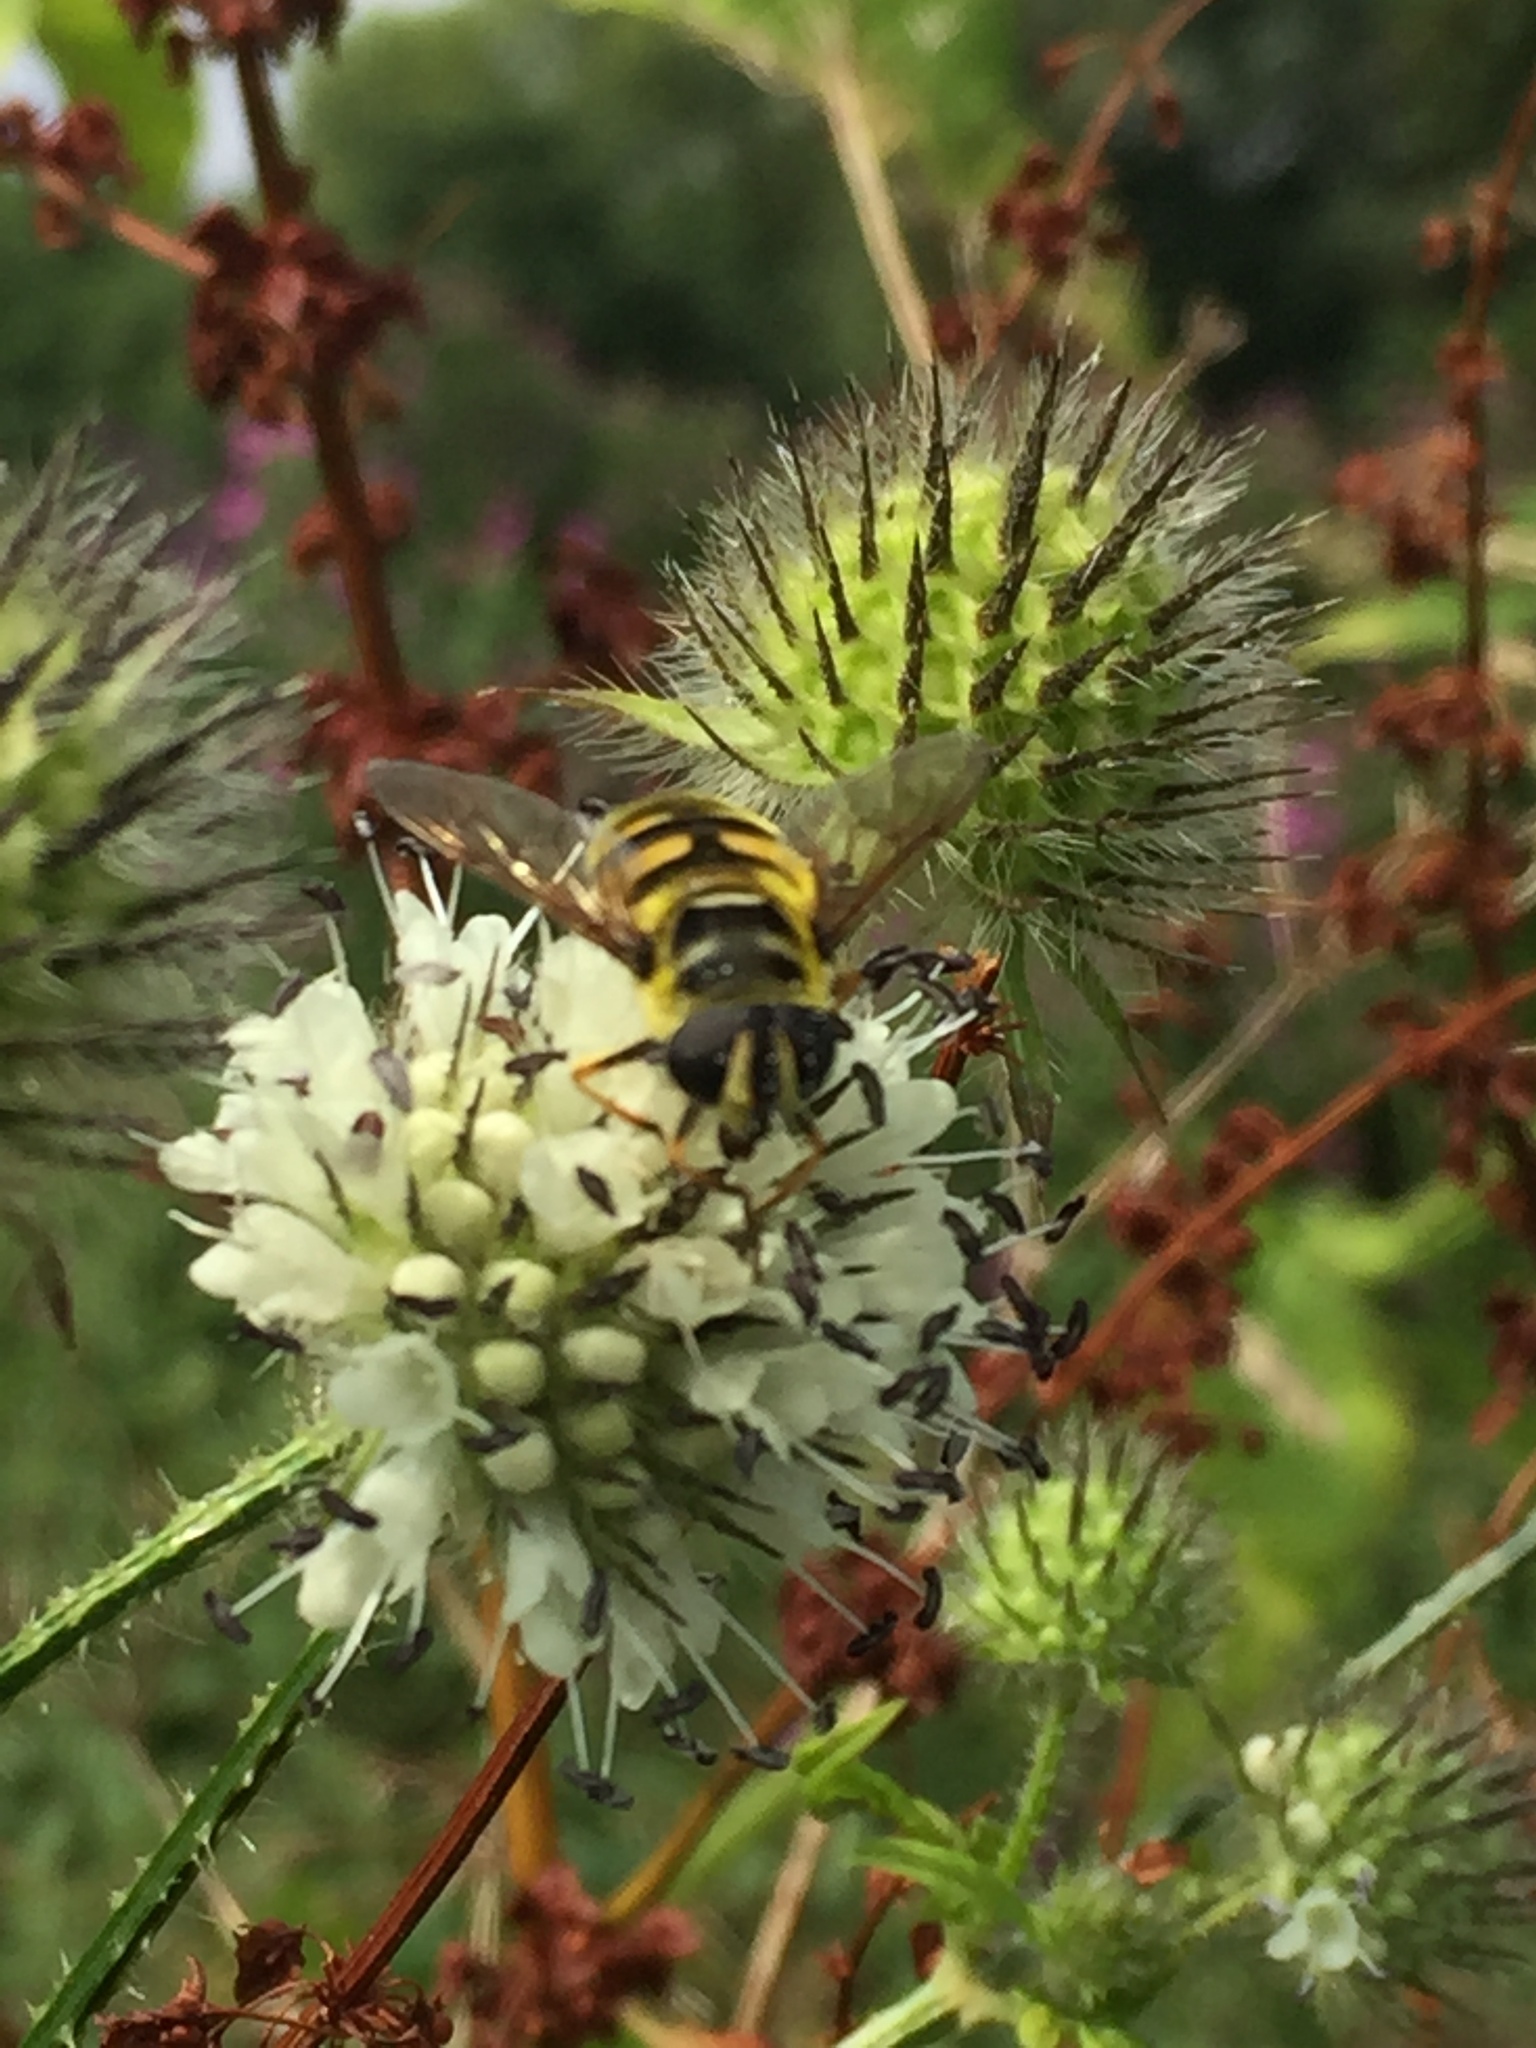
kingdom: Animalia
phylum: Arthropoda
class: Insecta
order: Diptera
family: Syrphidae
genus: Myathropa
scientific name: Myathropa florea
